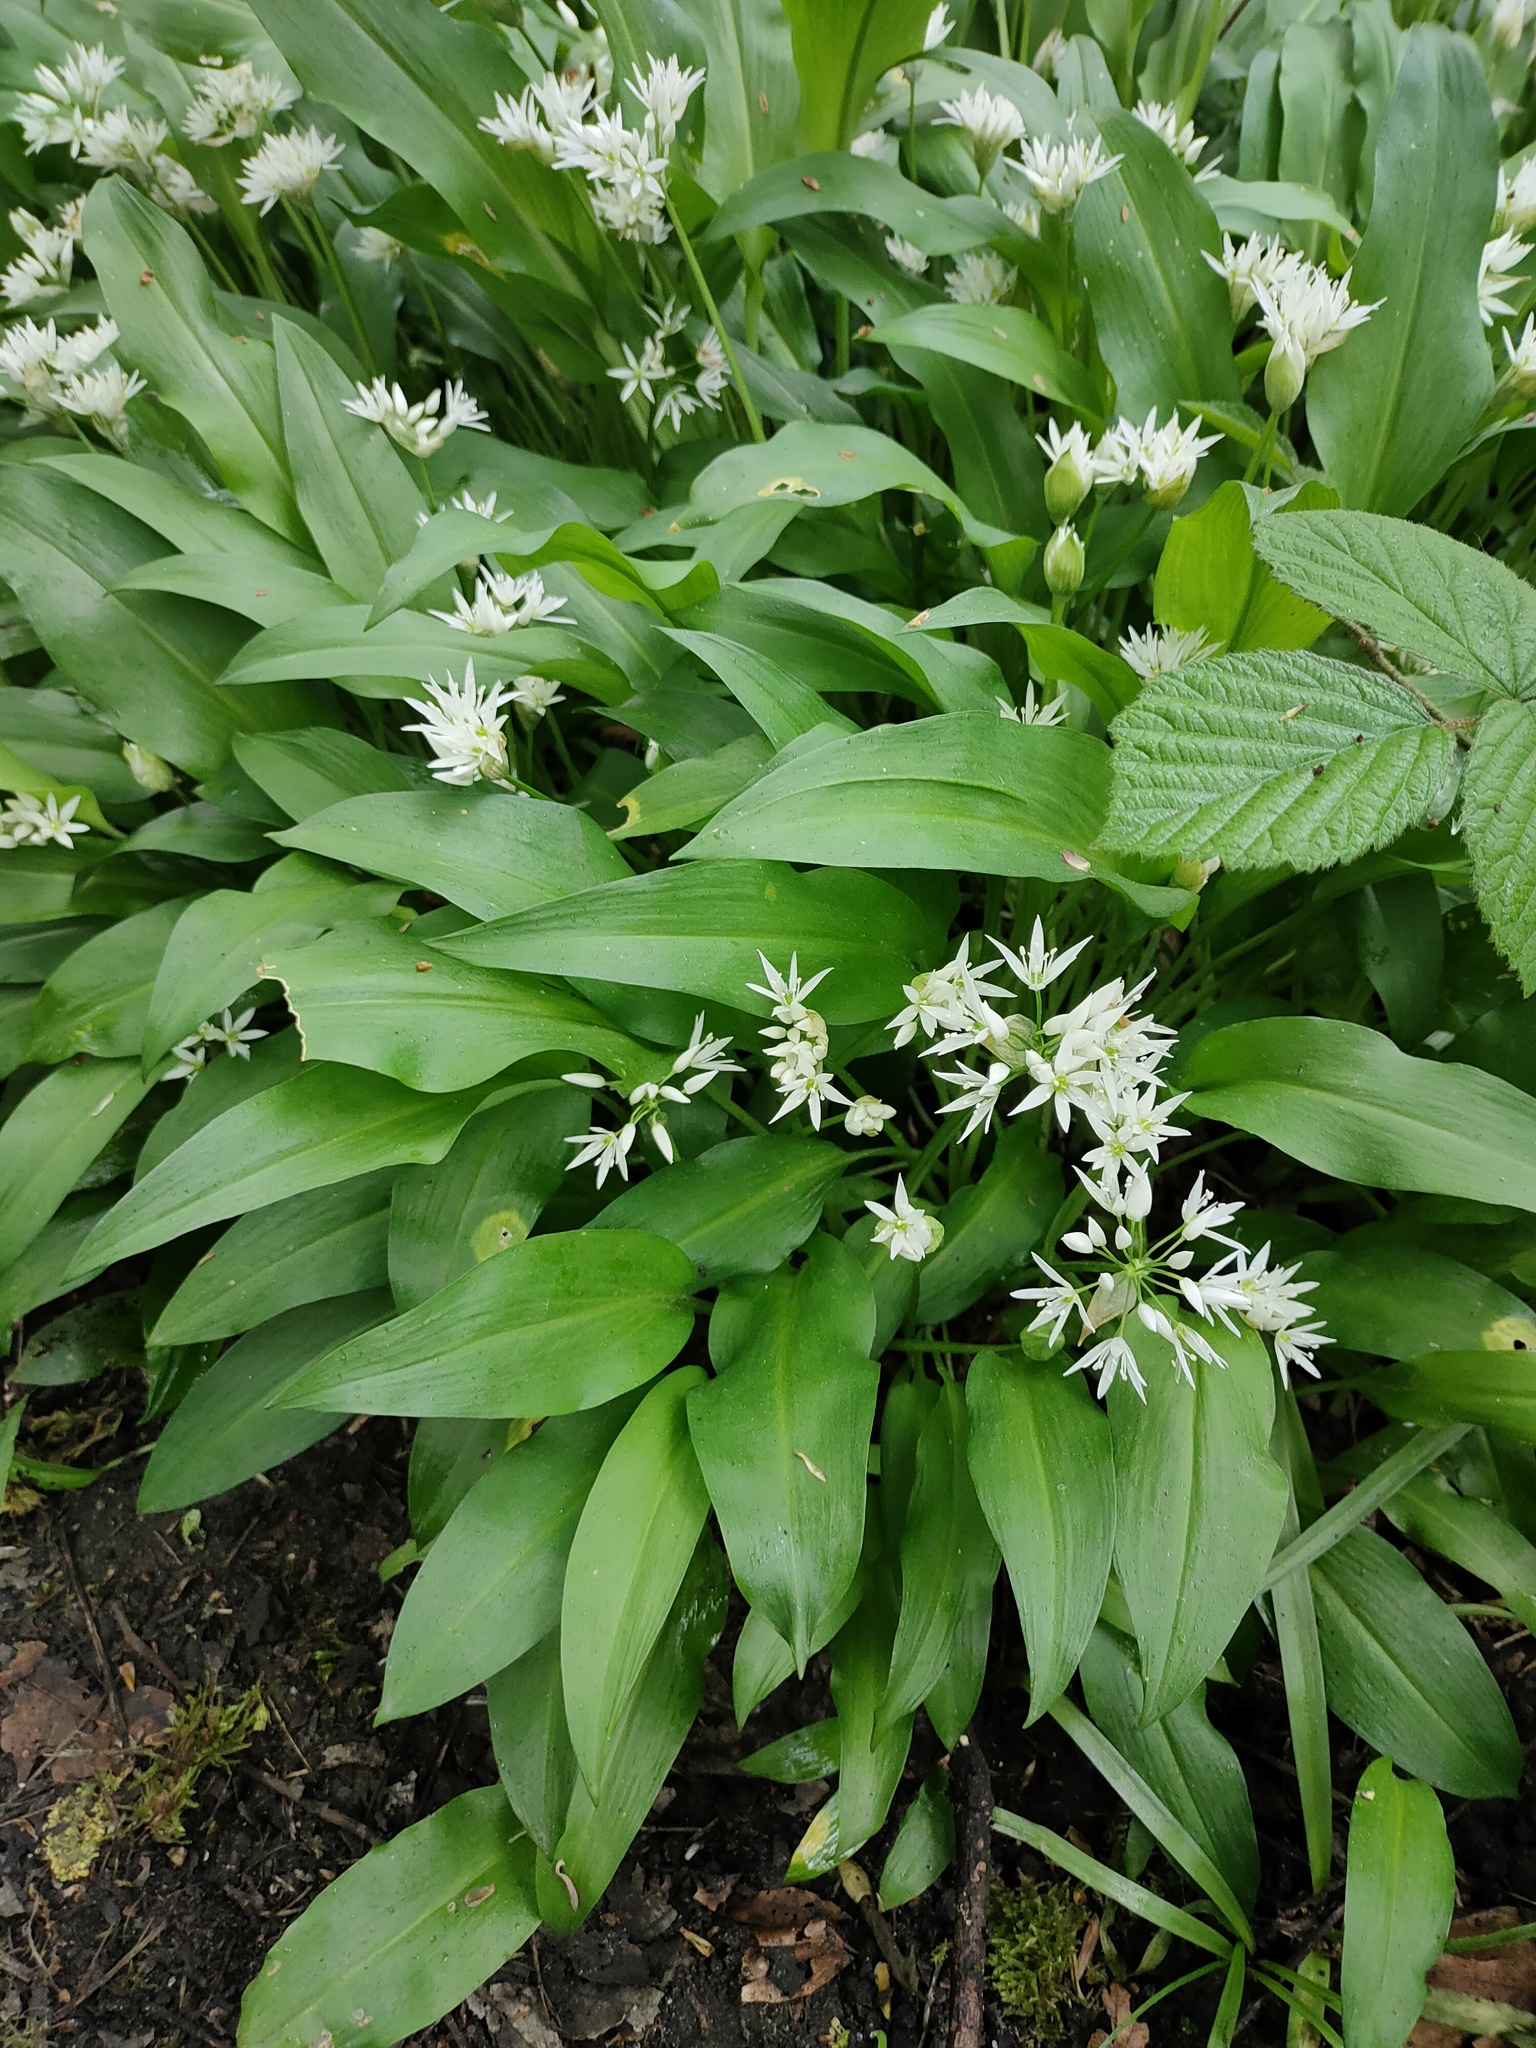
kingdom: Plantae
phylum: Tracheophyta
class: Liliopsida
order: Asparagales
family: Amaryllidaceae
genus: Allium
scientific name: Allium ursinum
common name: Ramsons
